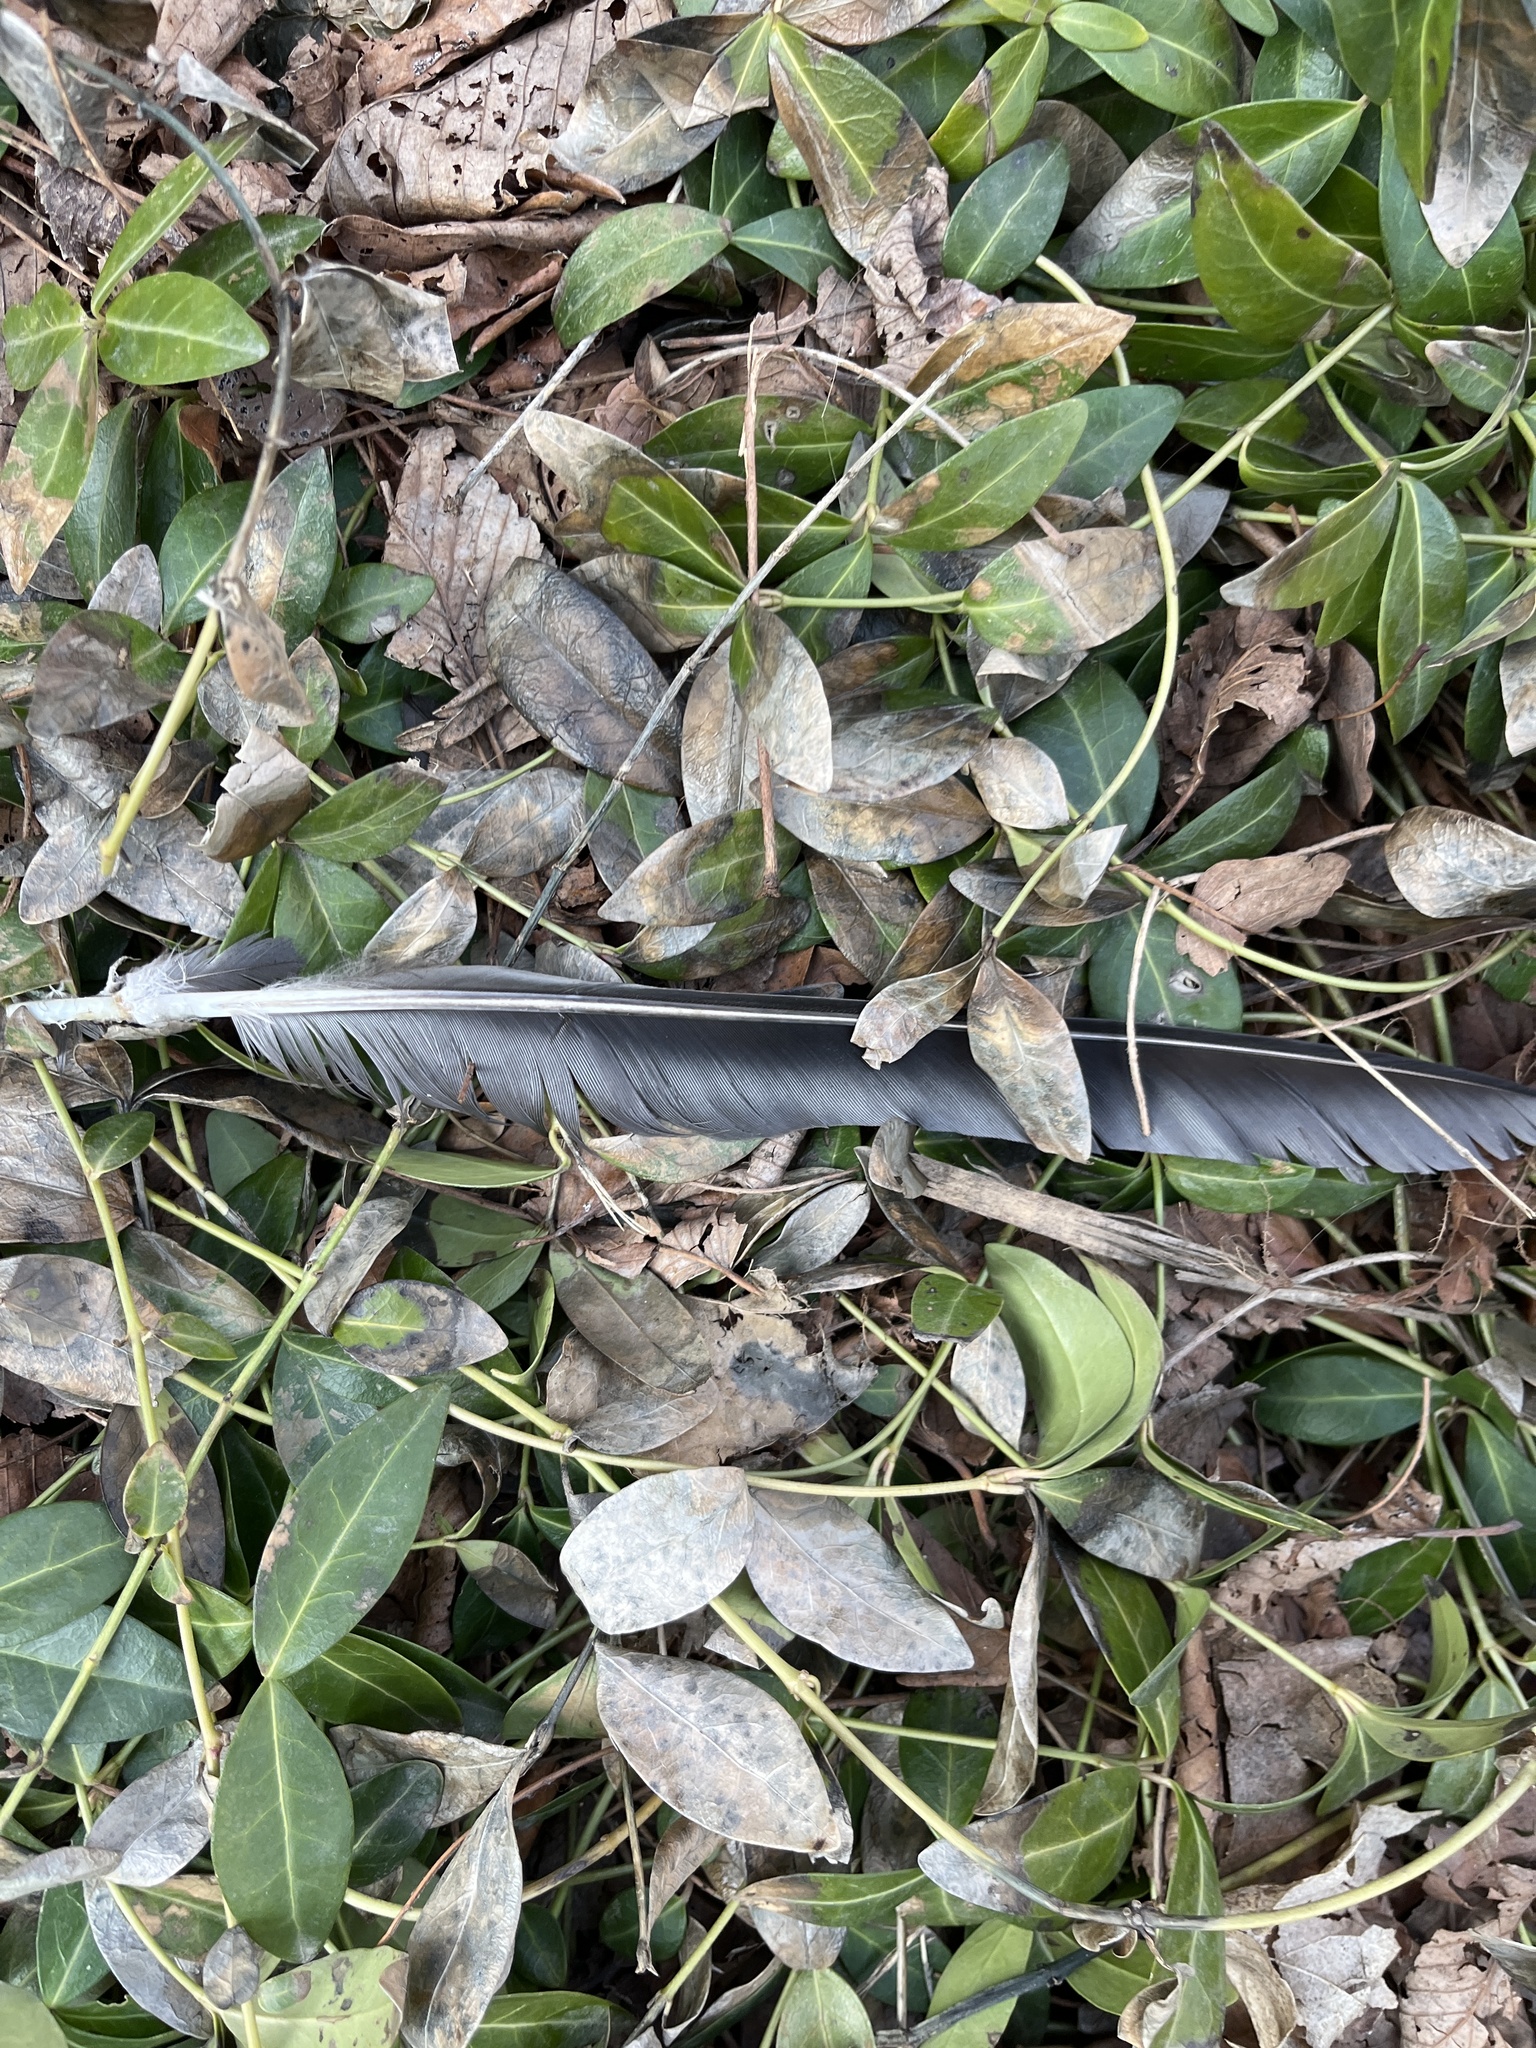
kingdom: Animalia
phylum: Chordata
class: Aves
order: Passeriformes
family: Corvidae
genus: Corvus
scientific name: Corvus brachyrhynchos
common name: American crow
